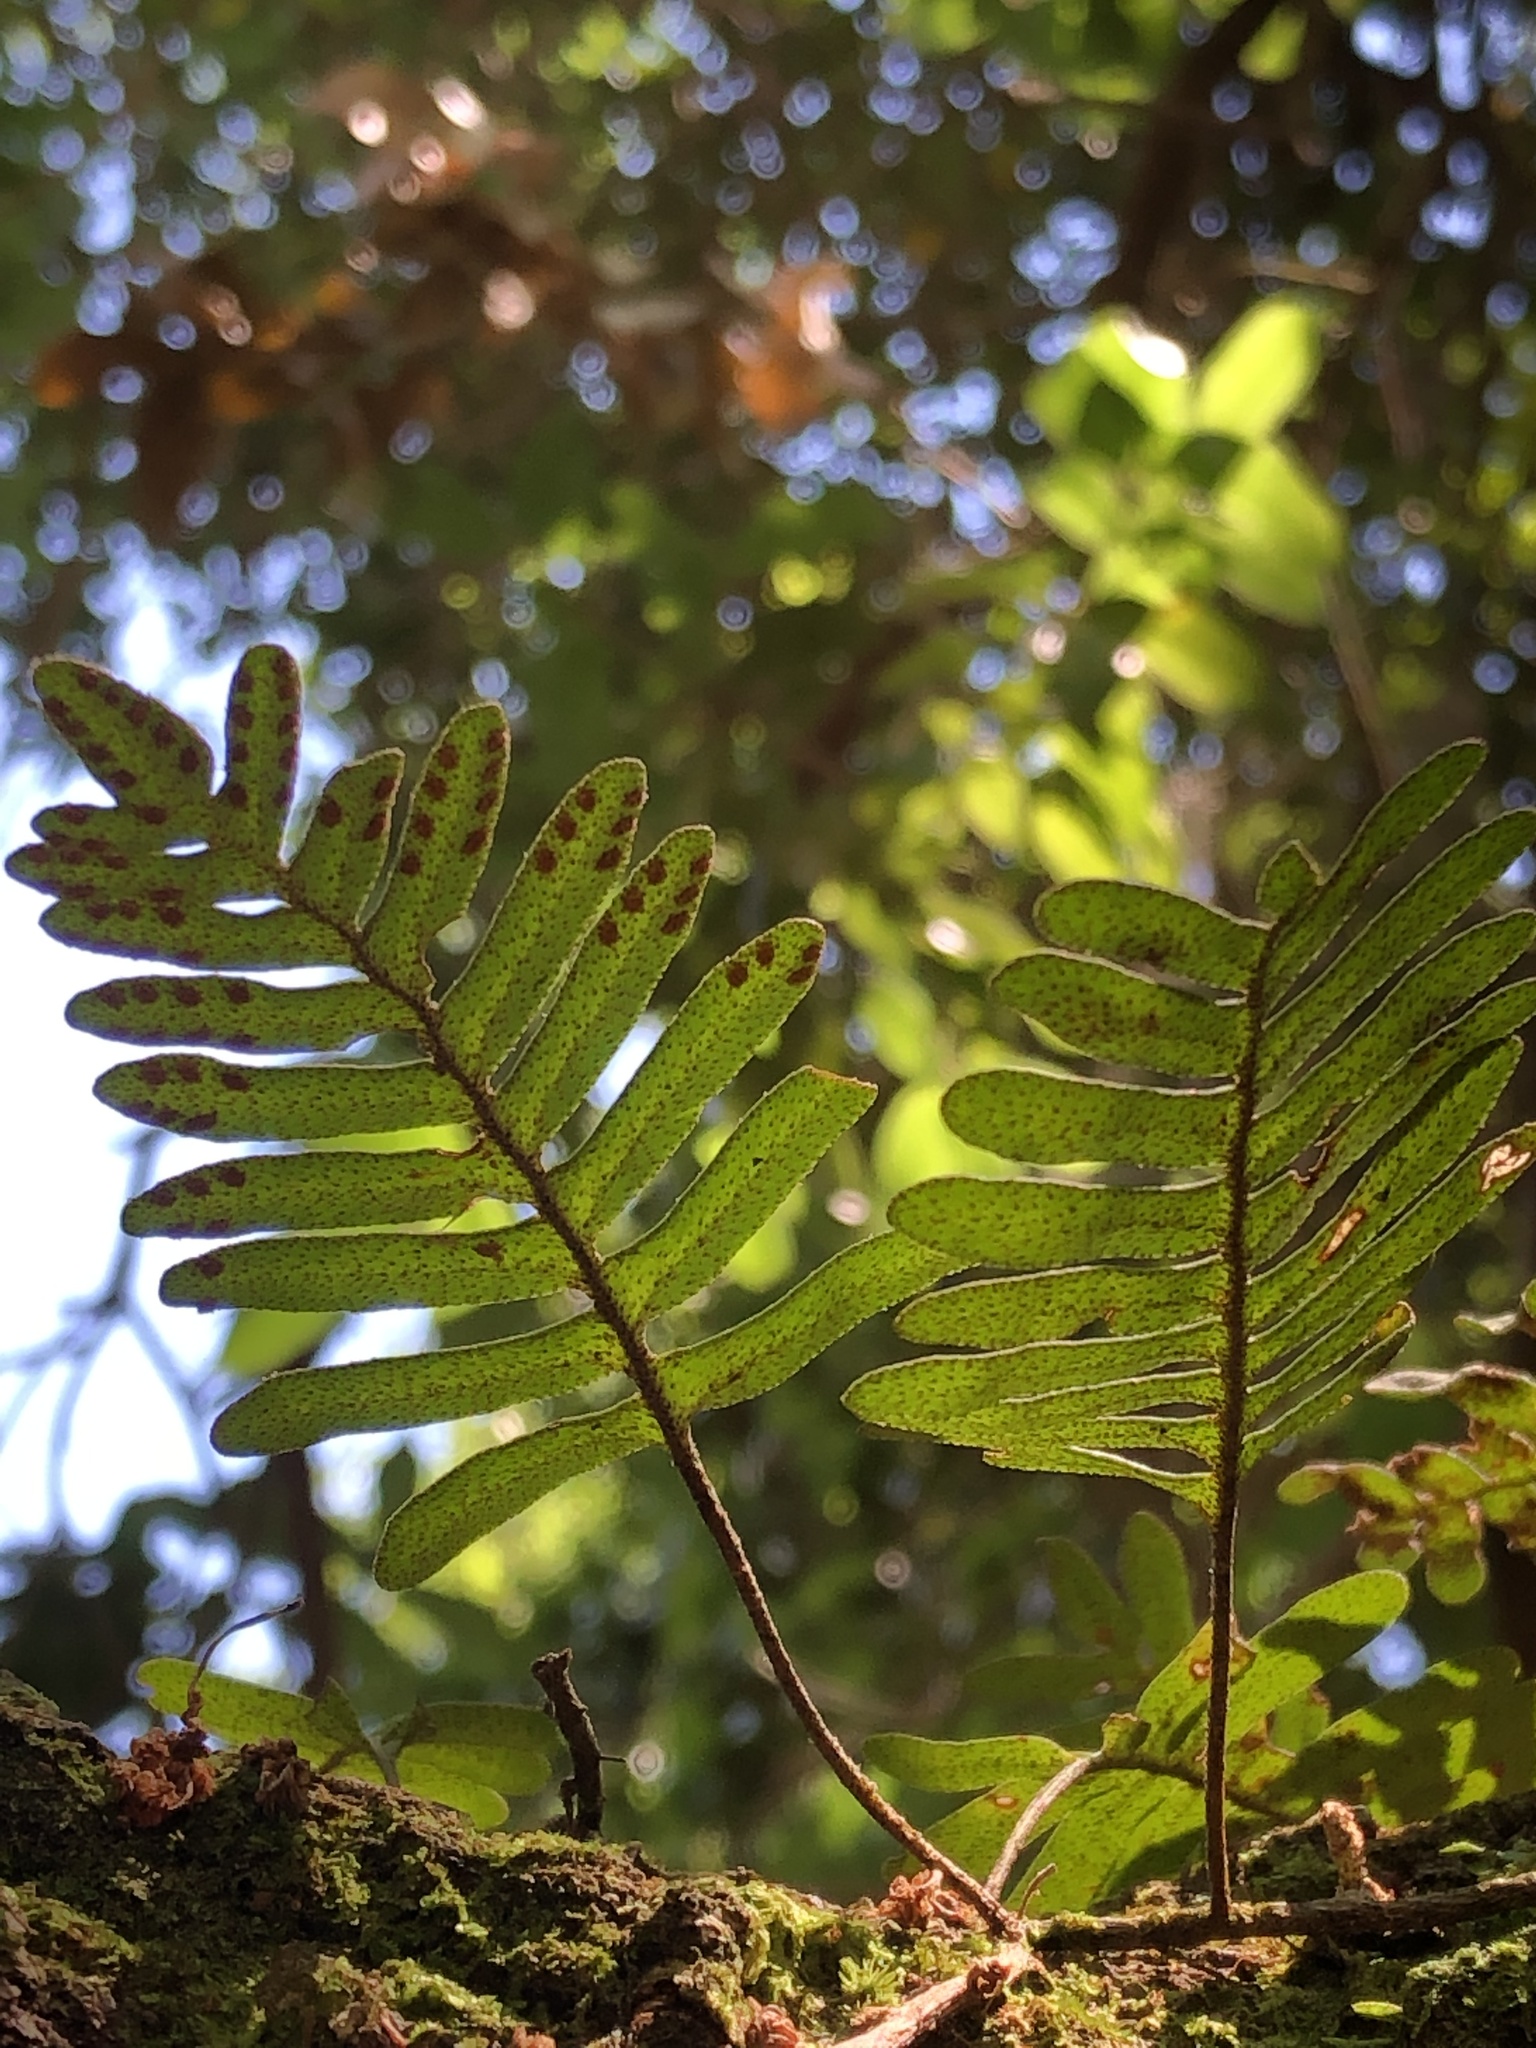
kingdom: Plantae
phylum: Tracheophyta
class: Polypodiopsida
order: Polypodiales
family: Polypodiaceae
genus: Pleopeltis
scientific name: Pleopeltis michauxiana
